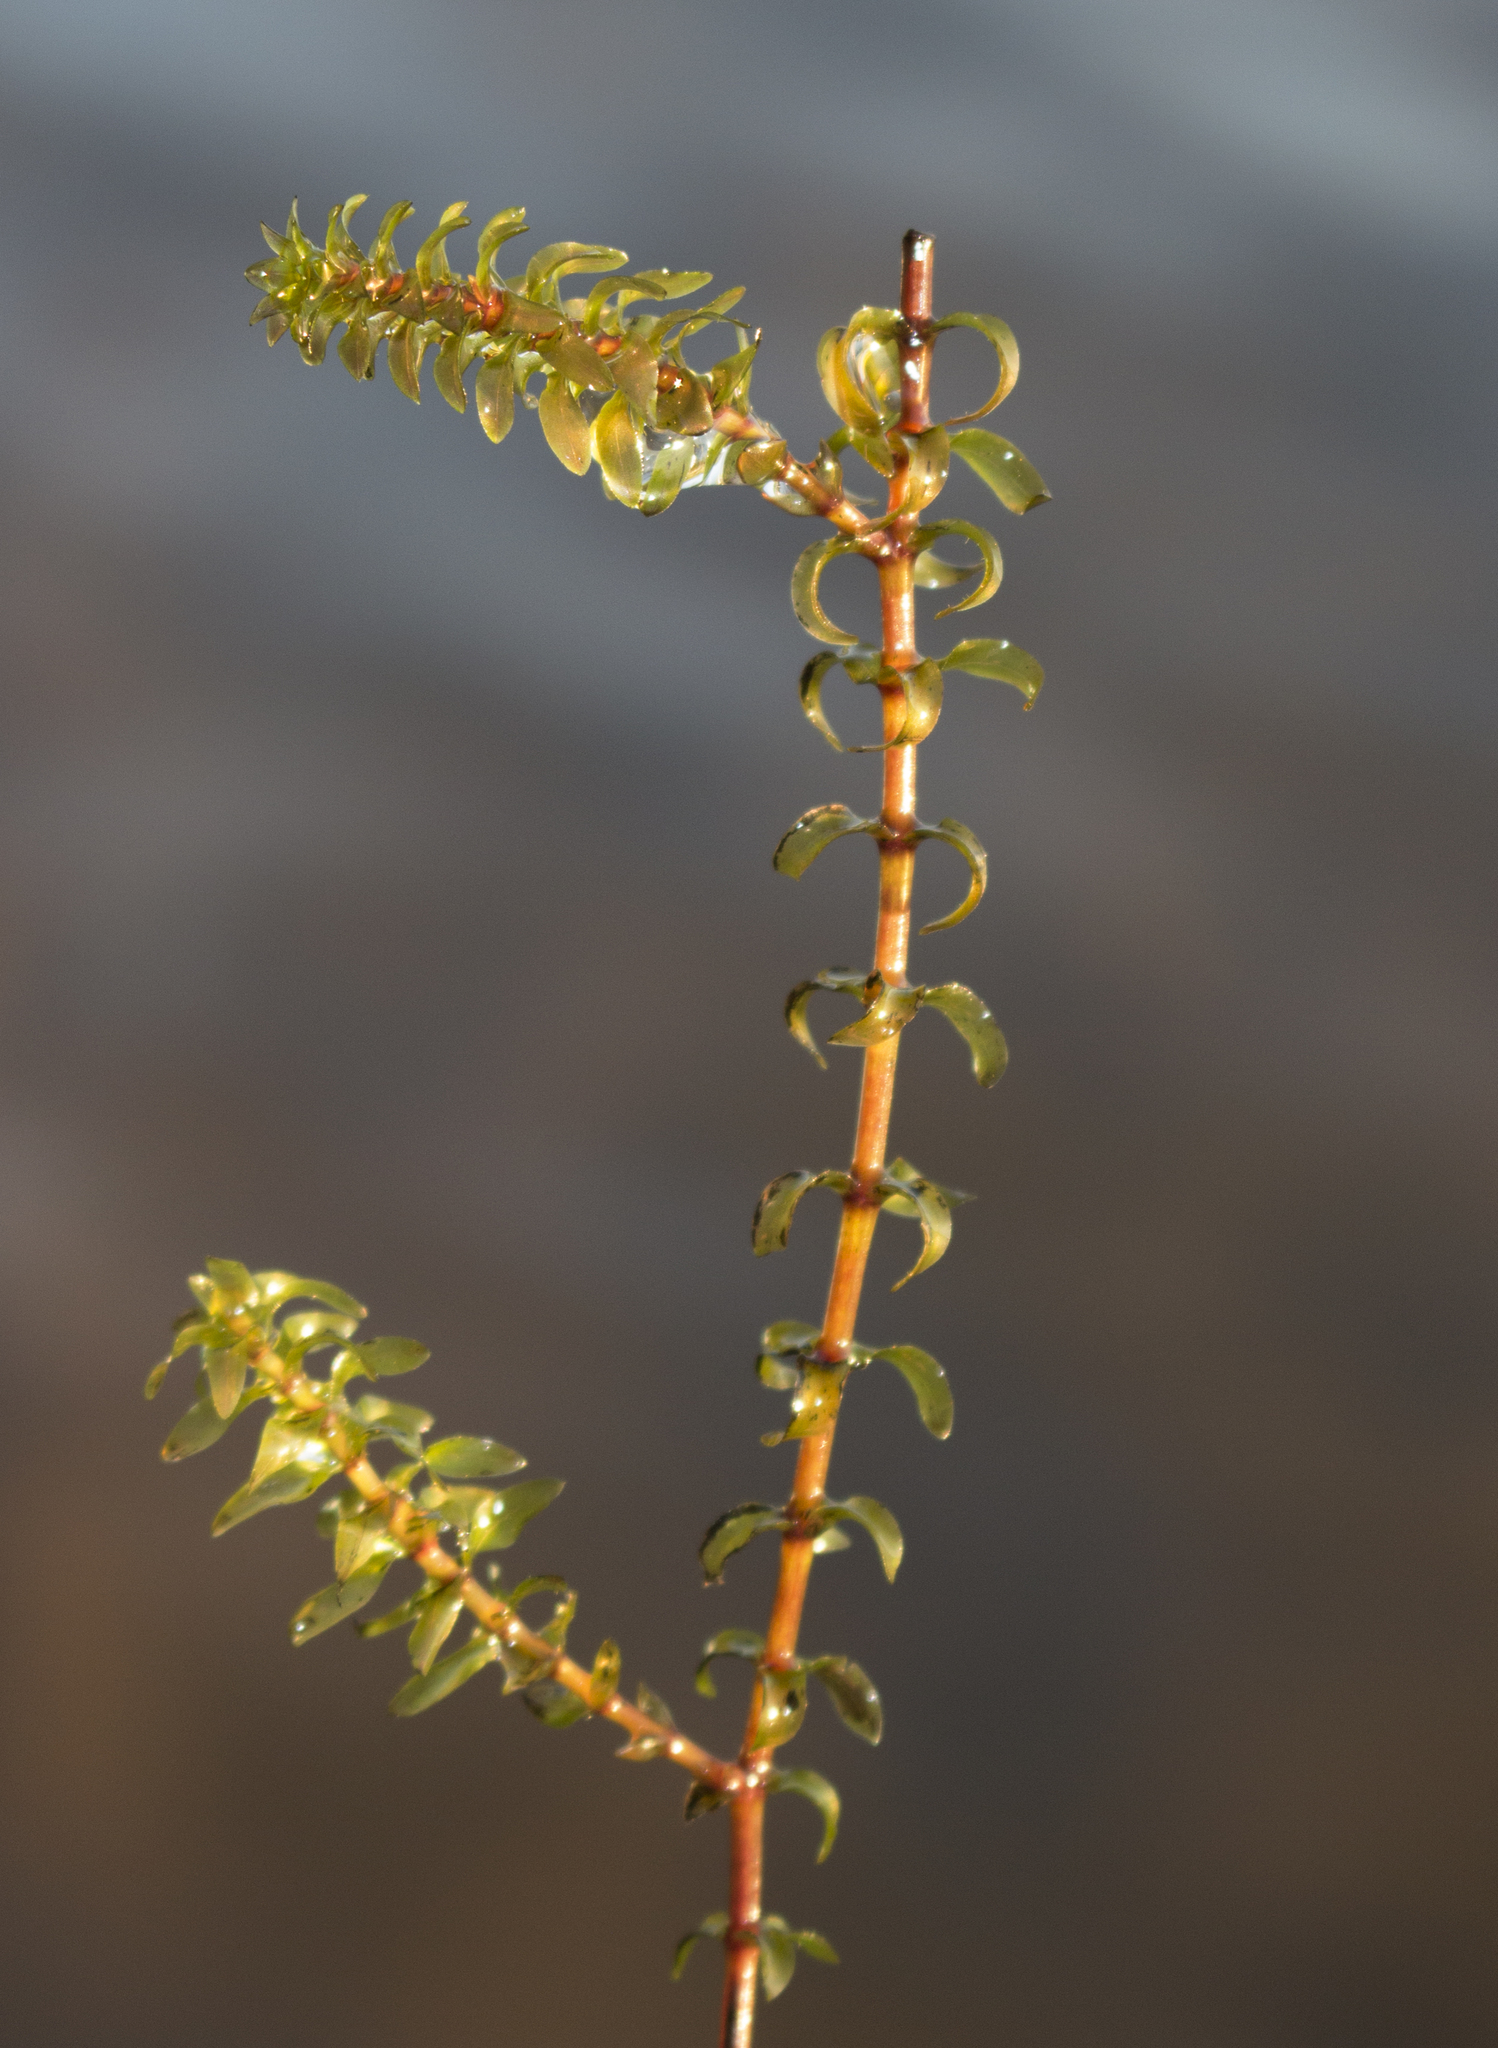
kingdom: Plantae
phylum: Tracheophyta
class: Liliopsida
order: Alismatales
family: Hydrocharitaceae
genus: Elodea
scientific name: Elodea canadensis
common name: Canadian waterweed
